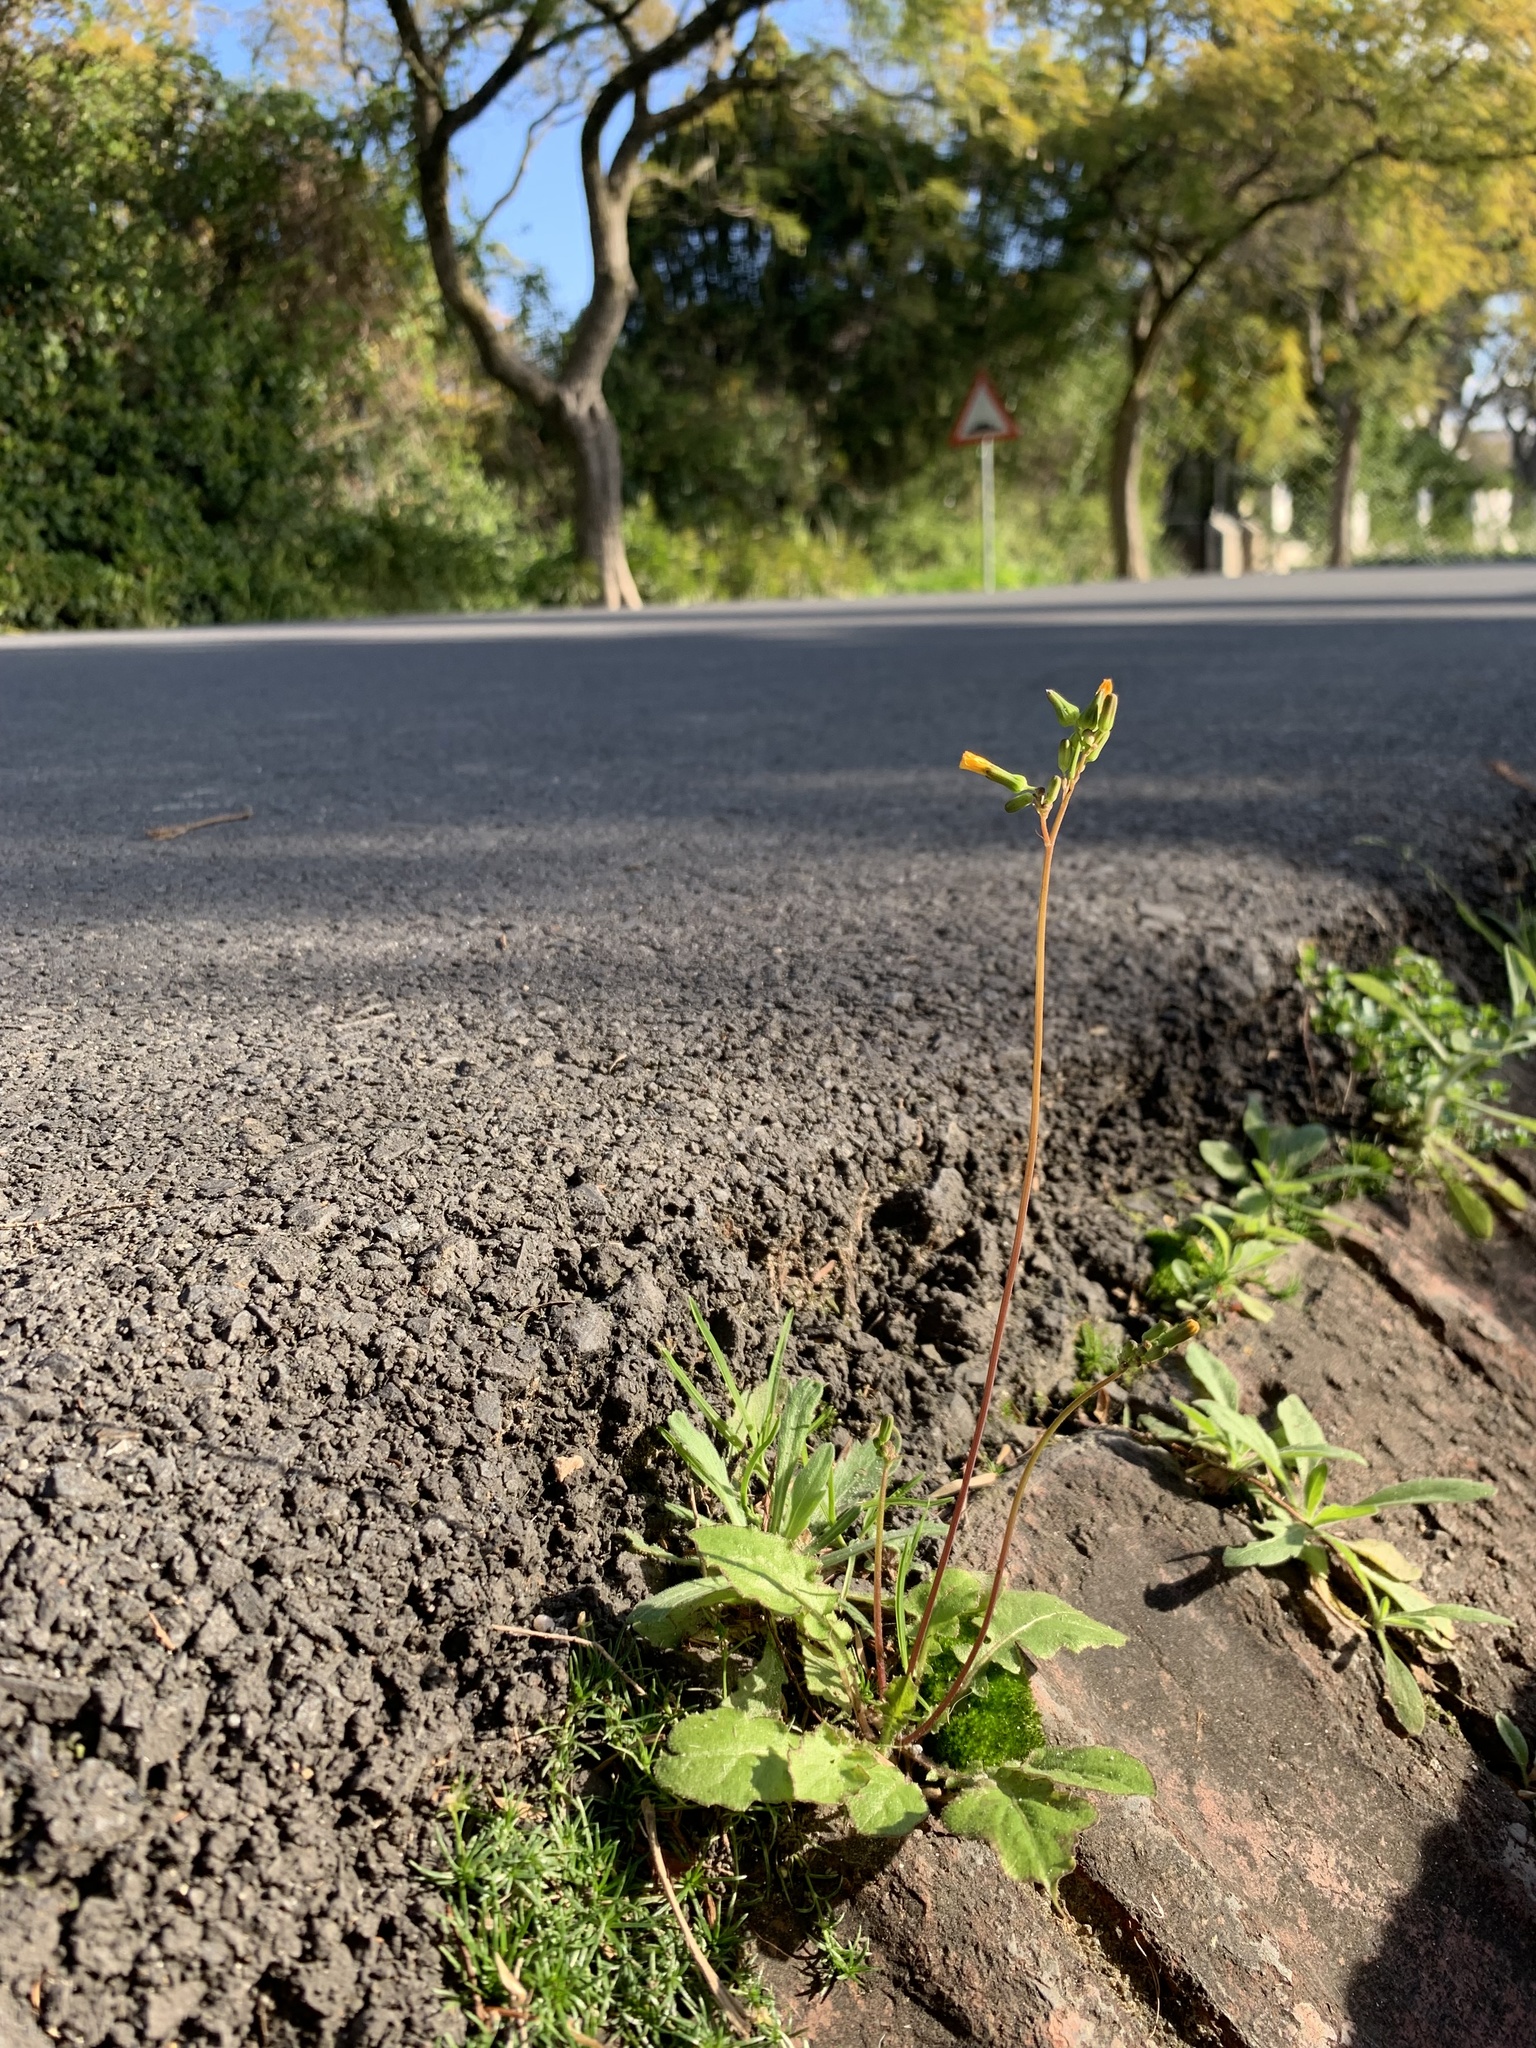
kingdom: Plantae
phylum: Tracheophyta
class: Magnoliopsida
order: Asterales
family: Asteraceae
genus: Youngia
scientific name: Youngia japonica
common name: Oriental false hawksbeard
